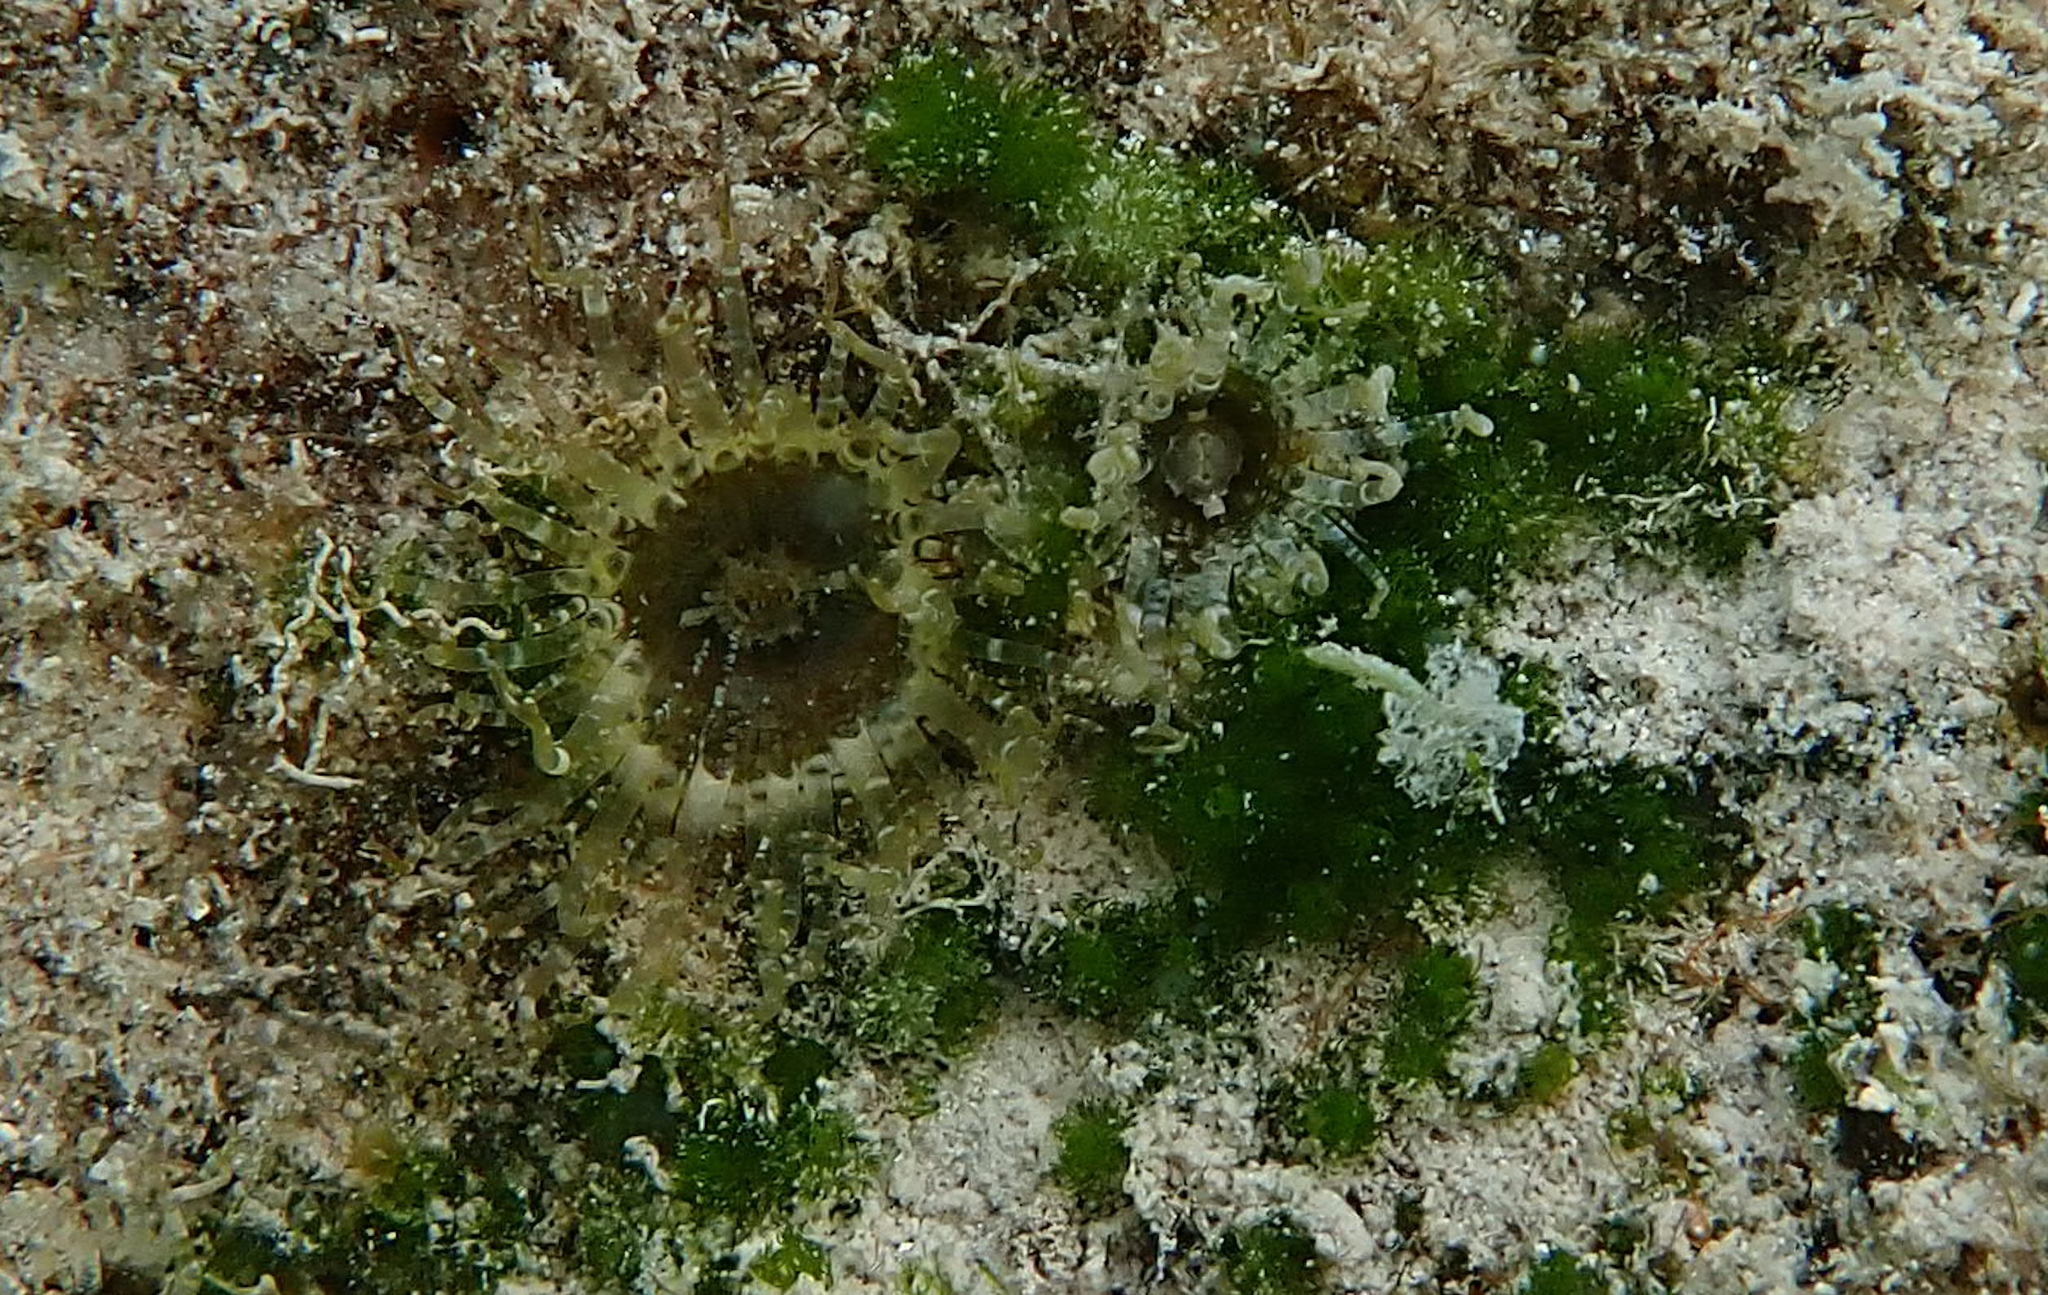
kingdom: Animalia
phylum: Cnidaria
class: Anthozoa
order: Actiniaria
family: Aiptasiidae
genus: Exaiptasia
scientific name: Exaiptasia diaphana
